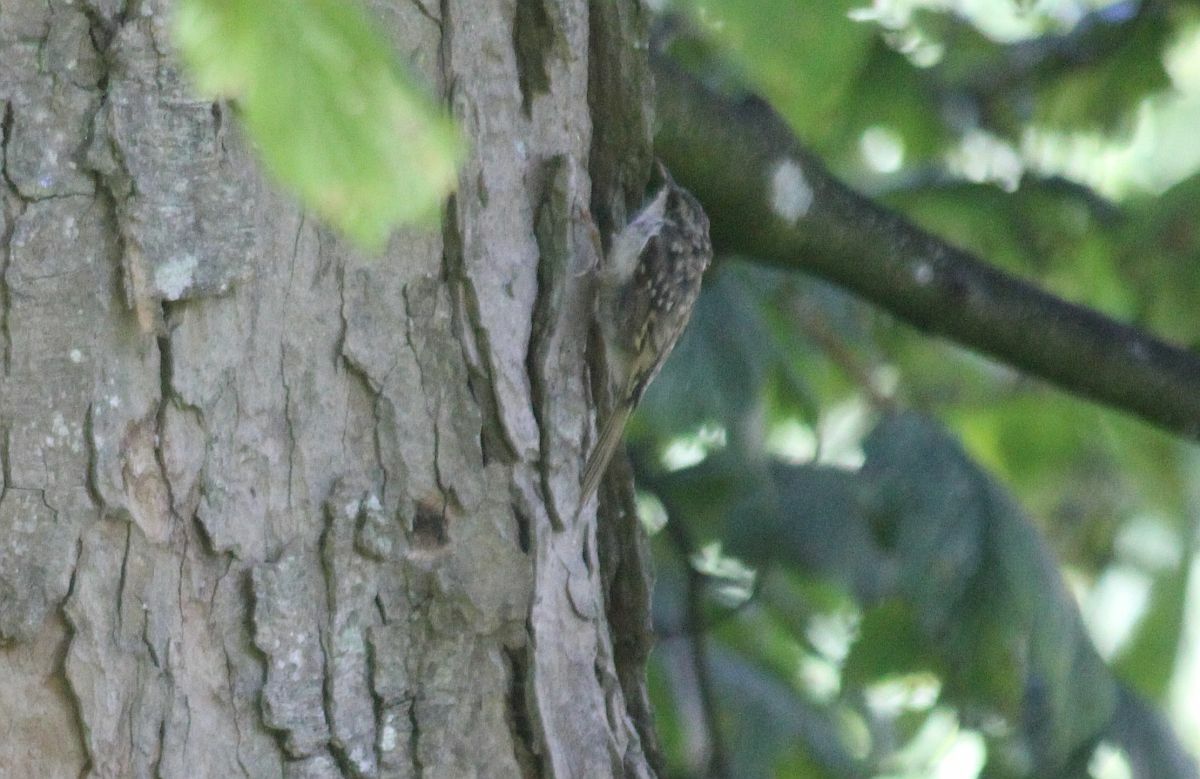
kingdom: Animalia
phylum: Chordata
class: Aves
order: Passeriformes
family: Certhiidae
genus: Certhia
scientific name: Certhia familiaris
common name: Eurasian treecreeper
